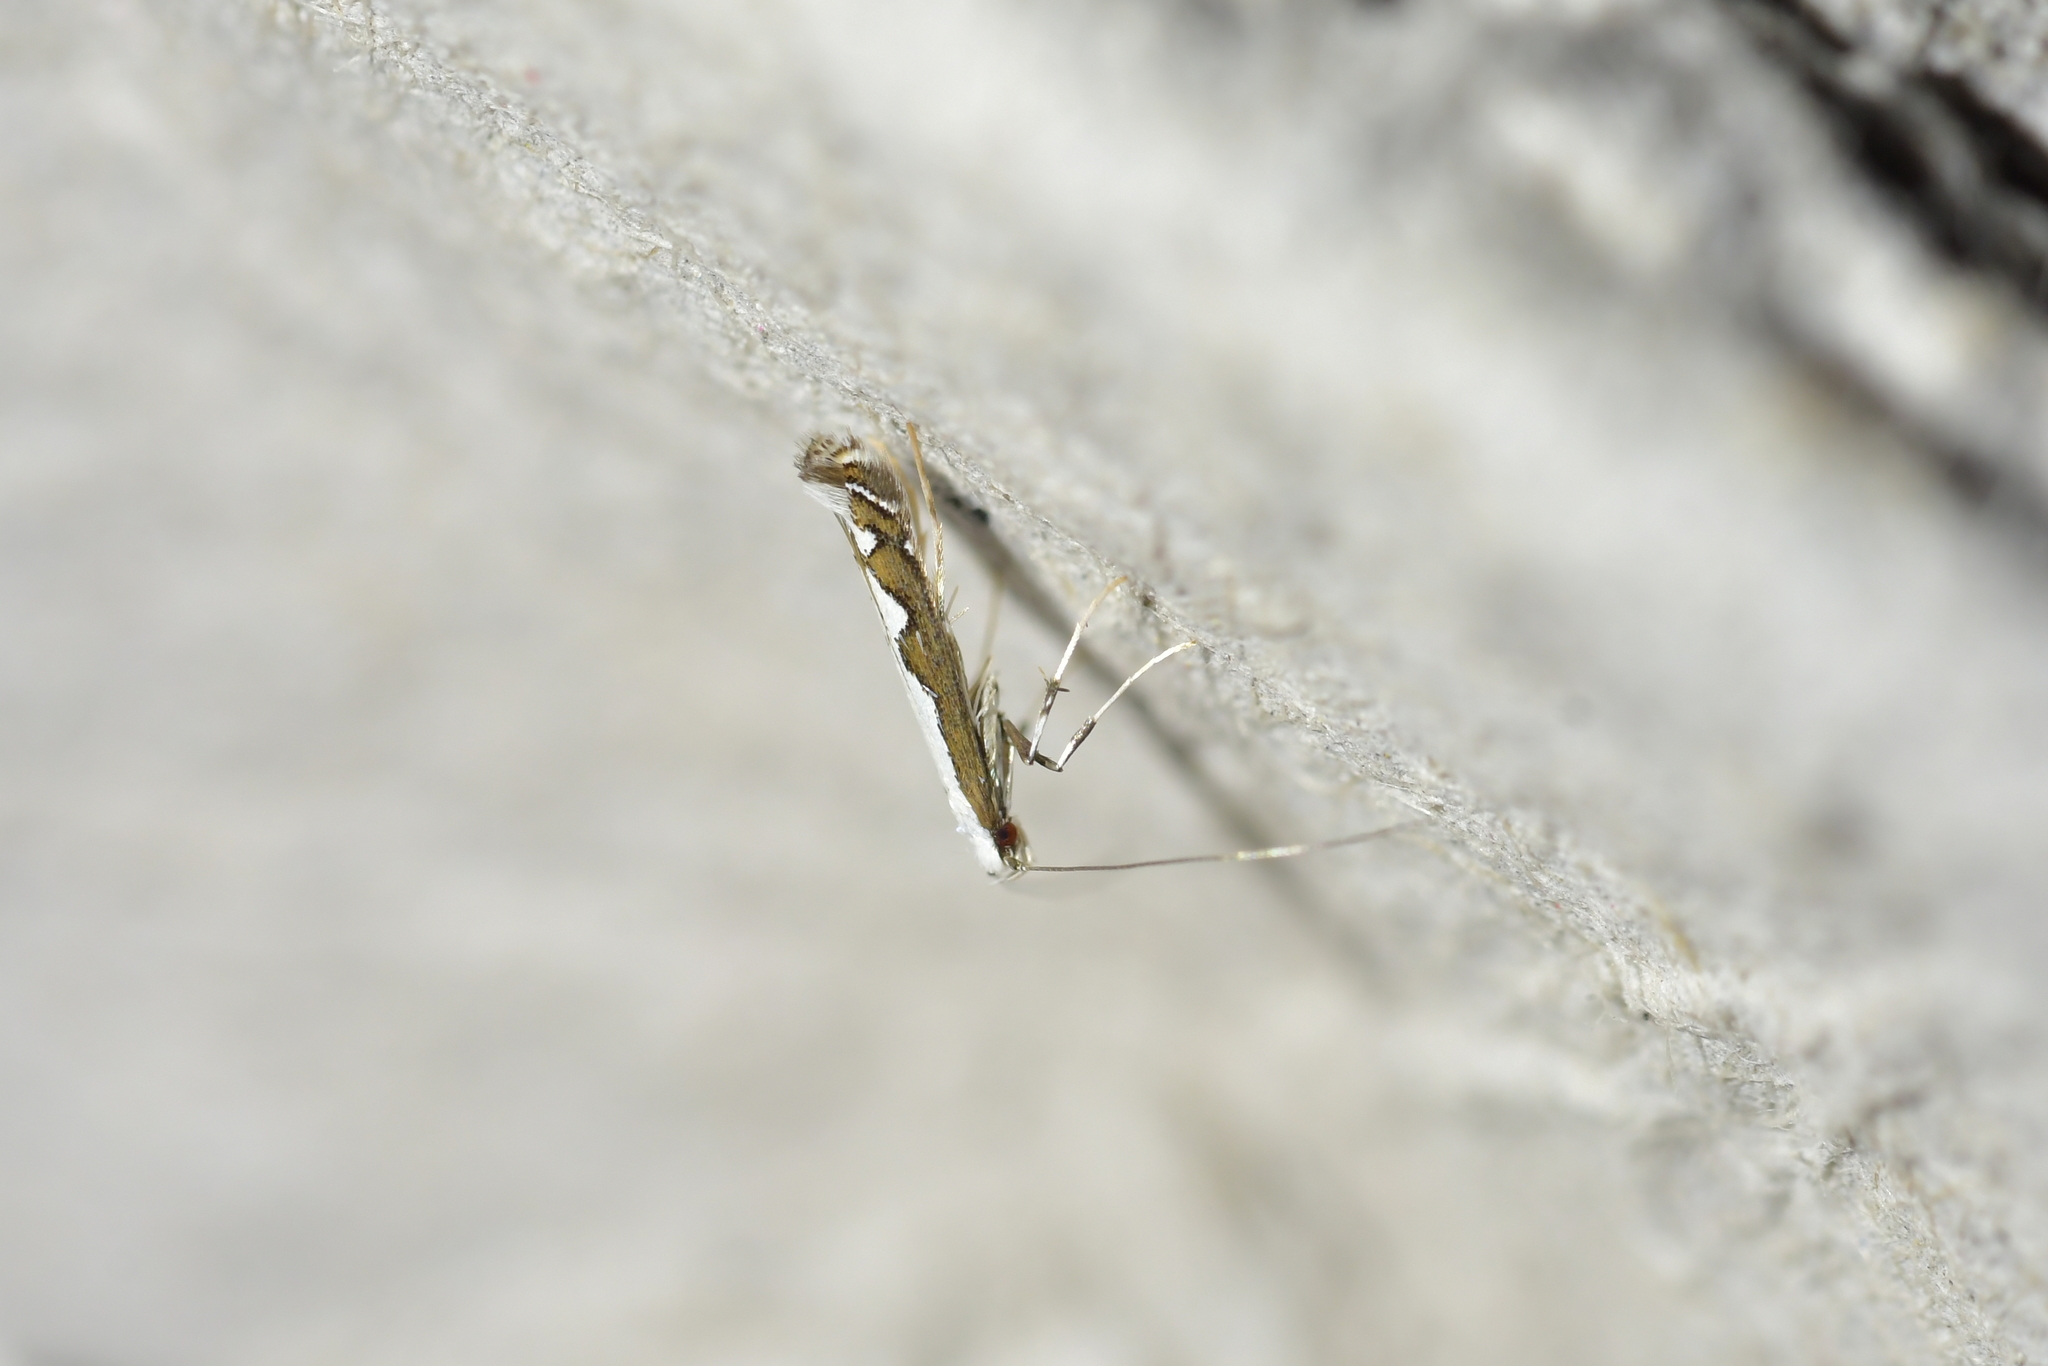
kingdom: Animalia
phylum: Arthropoda
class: Insecta
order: Lepidoptera
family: Gracillariidae
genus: Dialectica
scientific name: Dialectica scalariella
